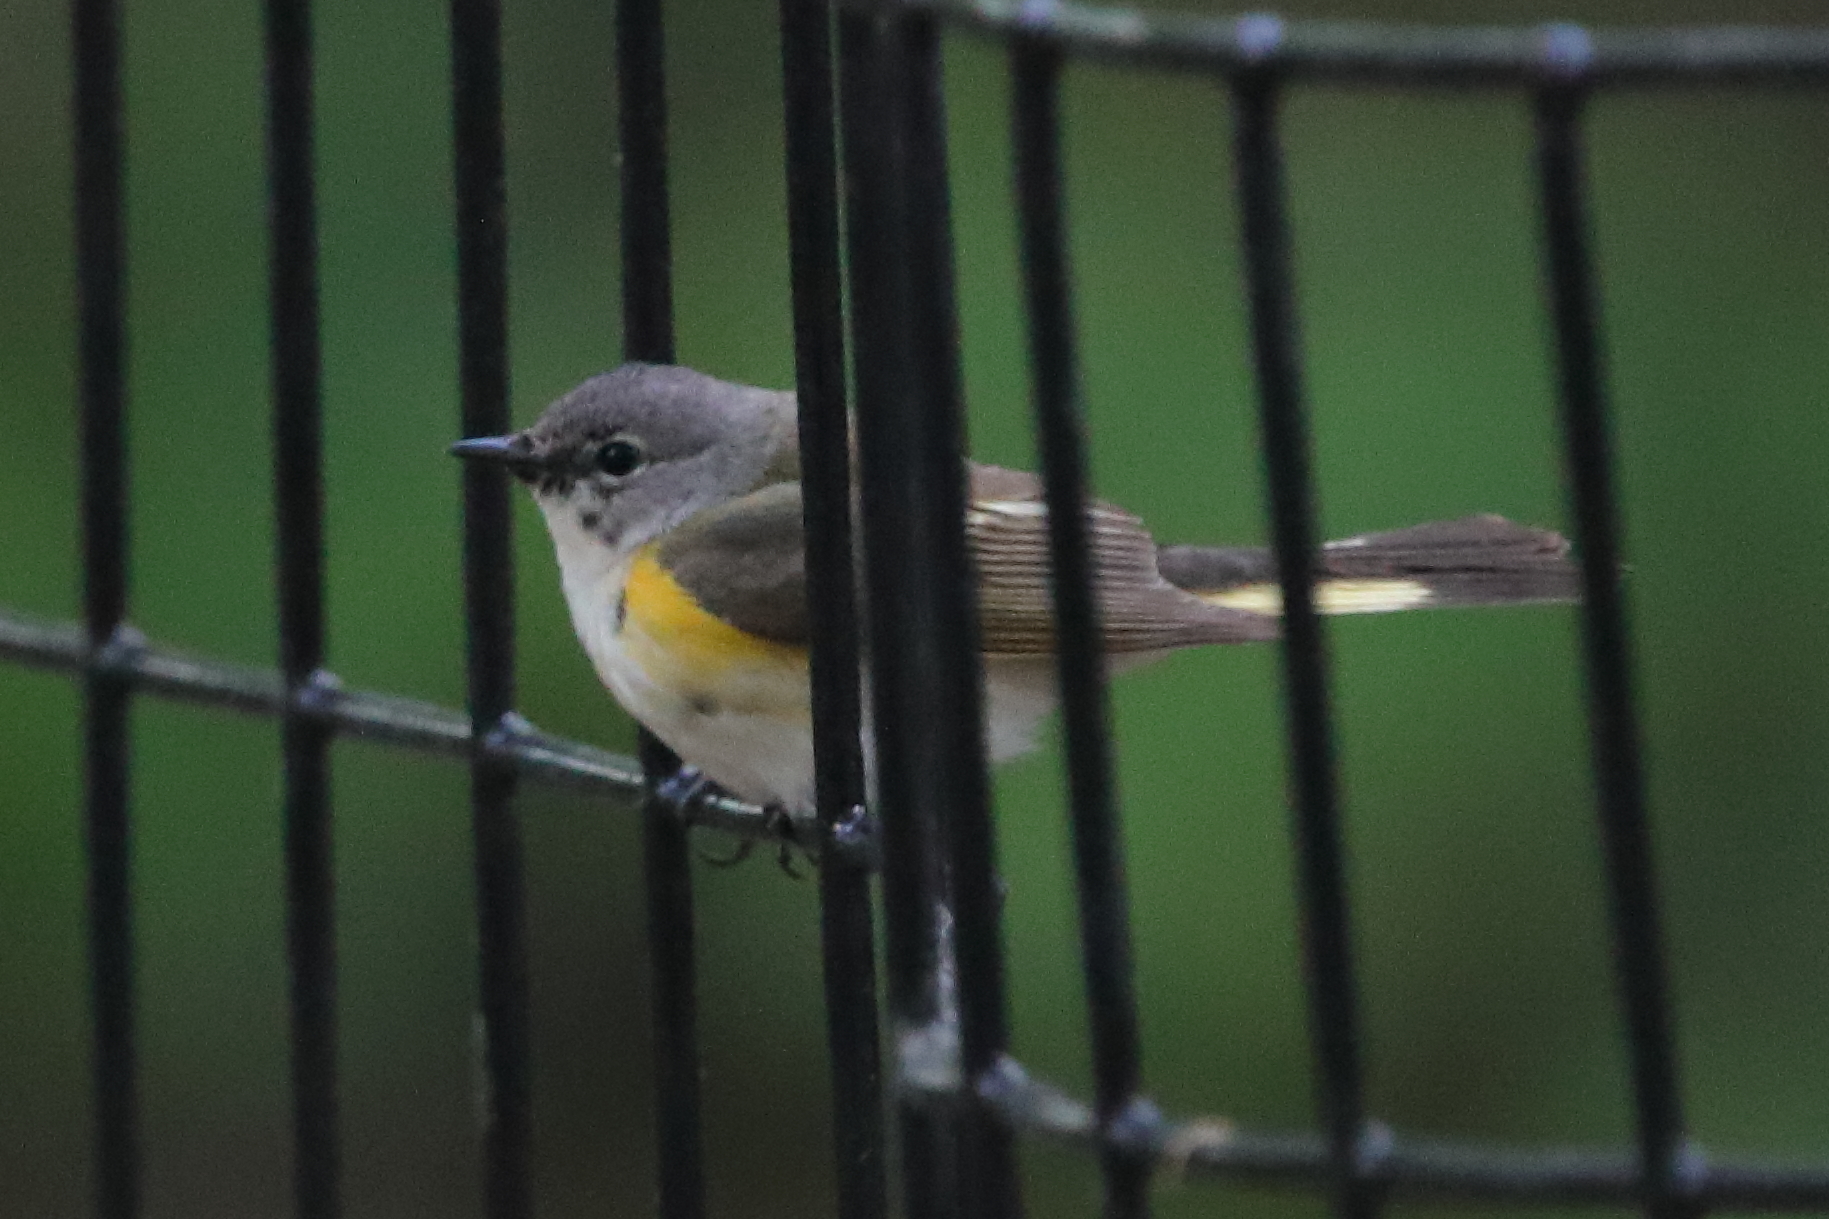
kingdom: Animalia
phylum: Chordata
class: Aves
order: Passeriformes
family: Parulidae
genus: Setophaga
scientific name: Setophaga ruticilla
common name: American redstart
